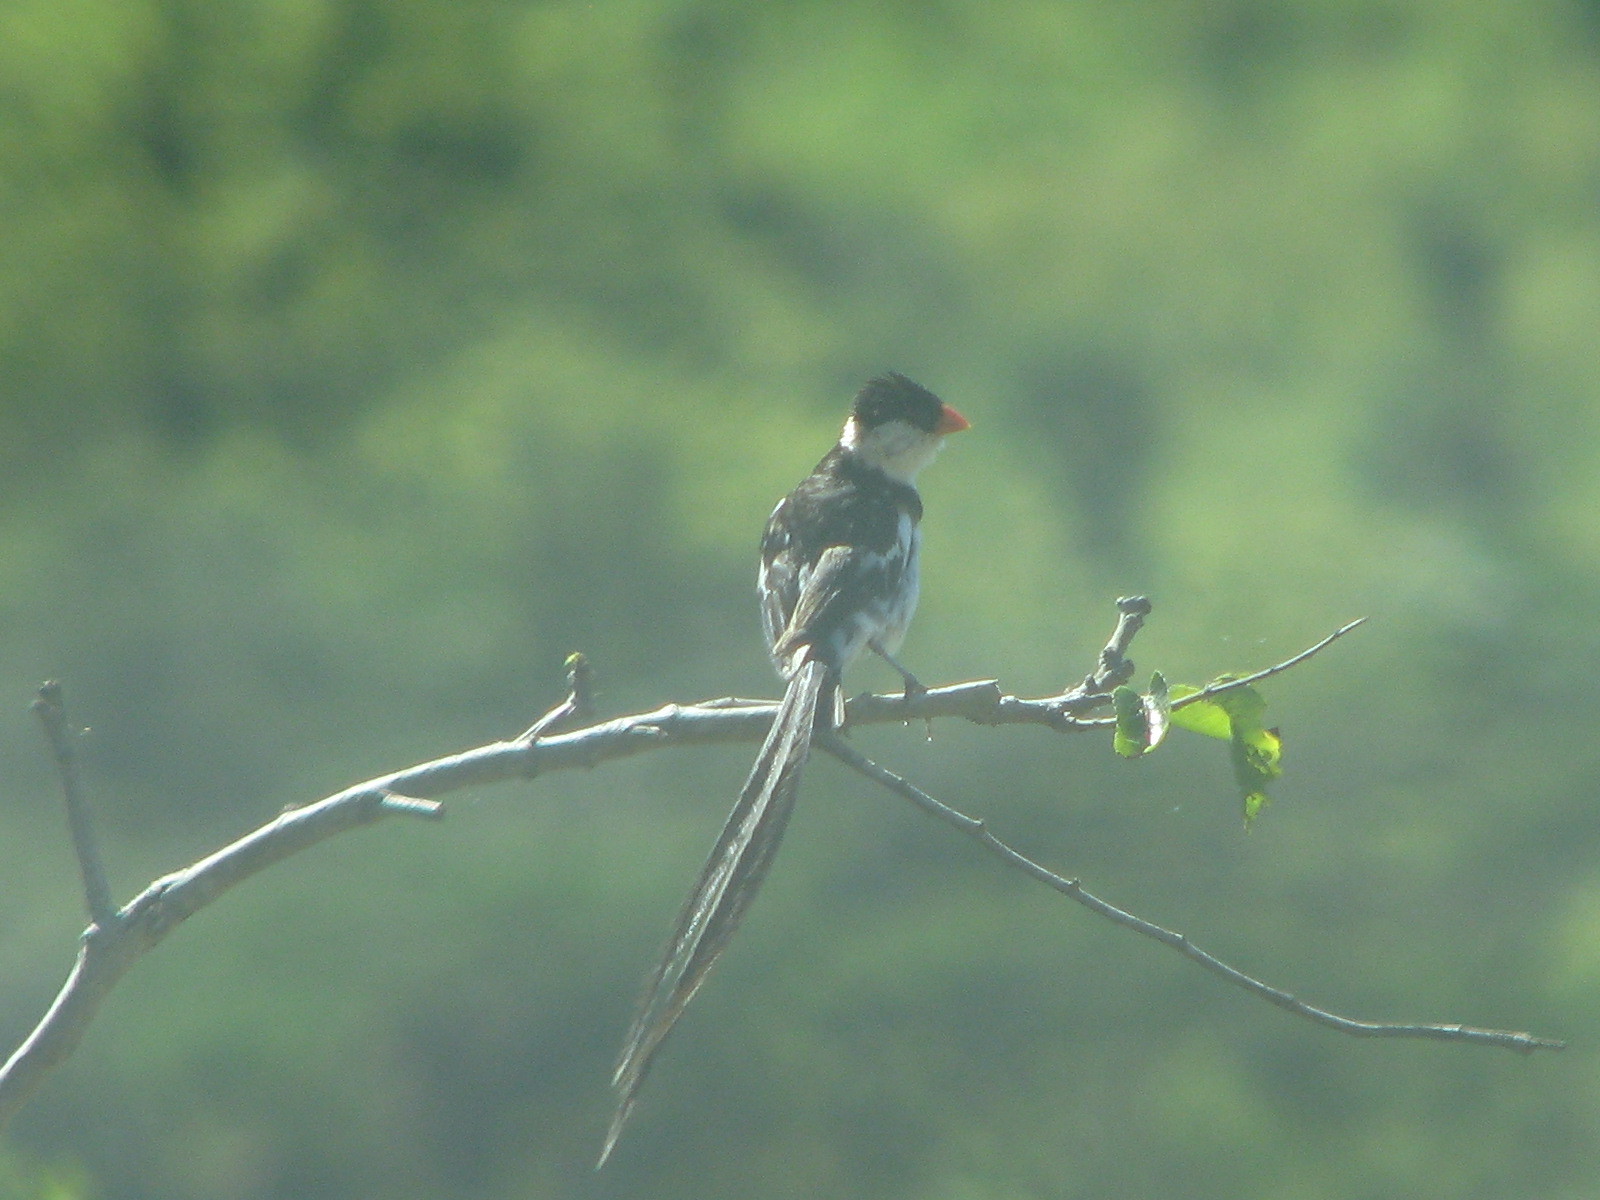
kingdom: Animalia
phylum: Chordata
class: Aves
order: Passeriformes
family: Viduidae
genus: Vidua
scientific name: Vidua macroura
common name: Pin-tailed whydah
